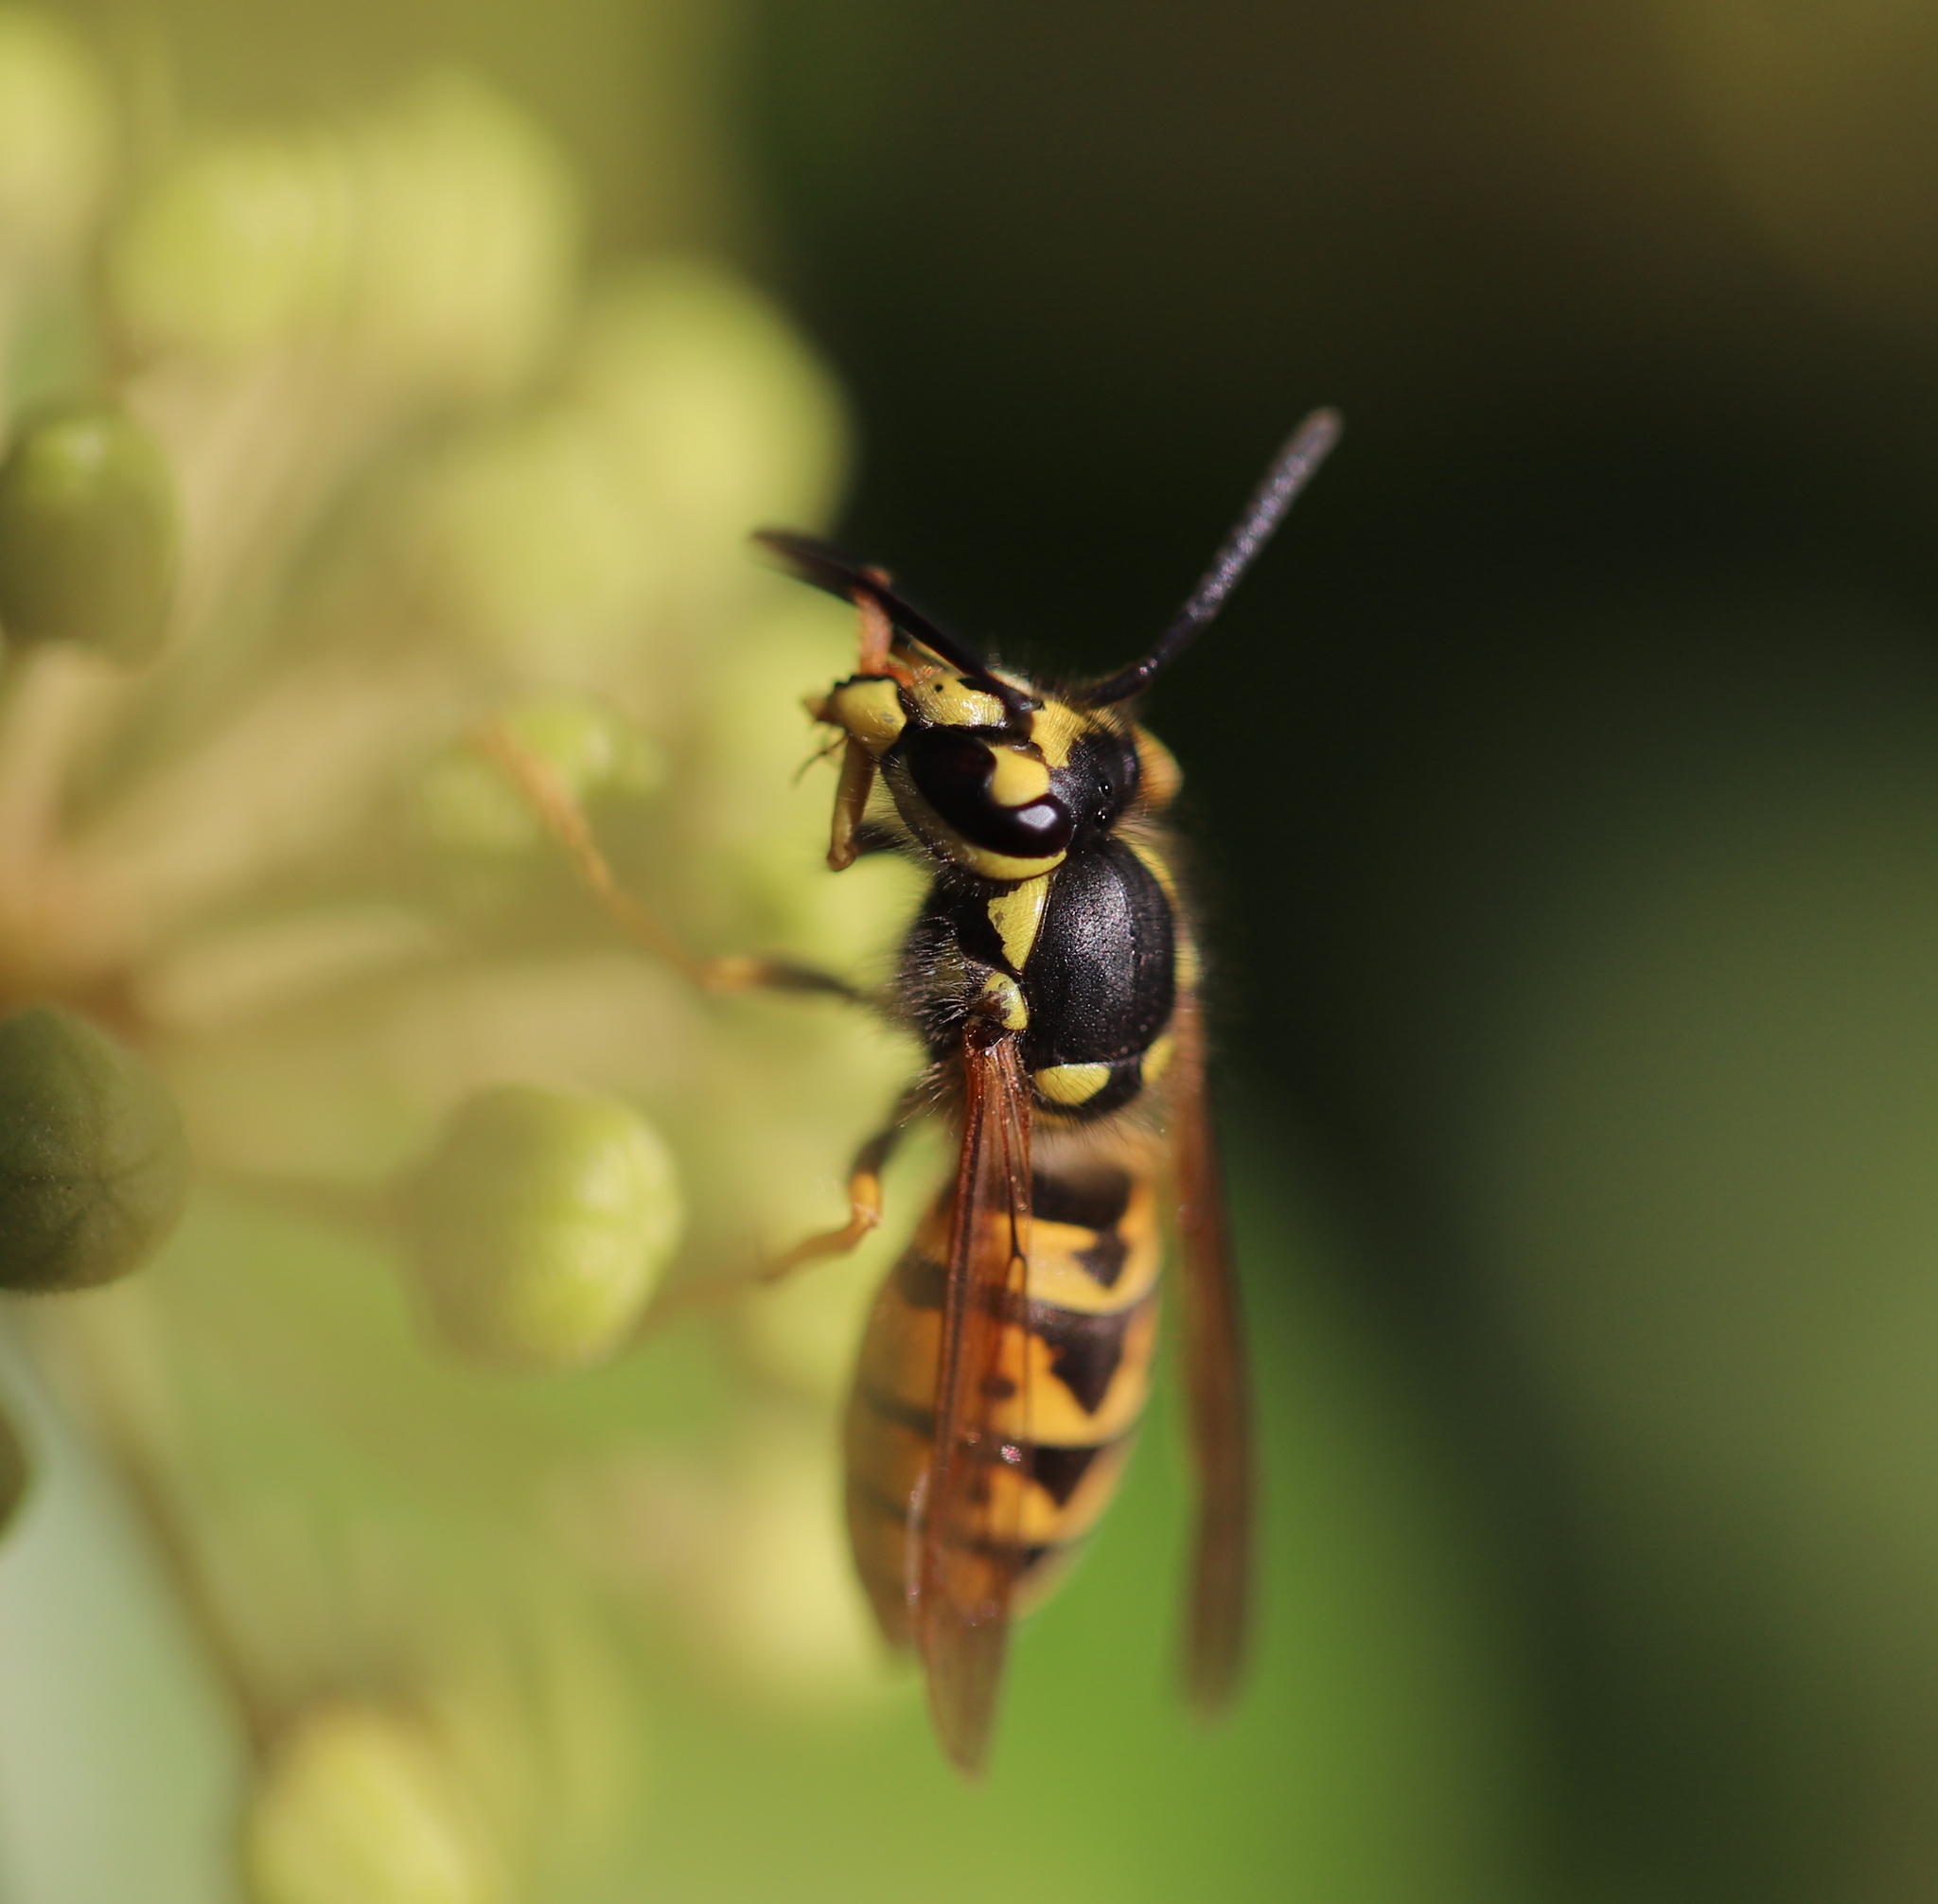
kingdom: Animalia
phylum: Arthropoda
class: Insecta
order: Hymenoptera
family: Vespidae
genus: Vespula
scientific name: Vespula germanica
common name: German wasp
